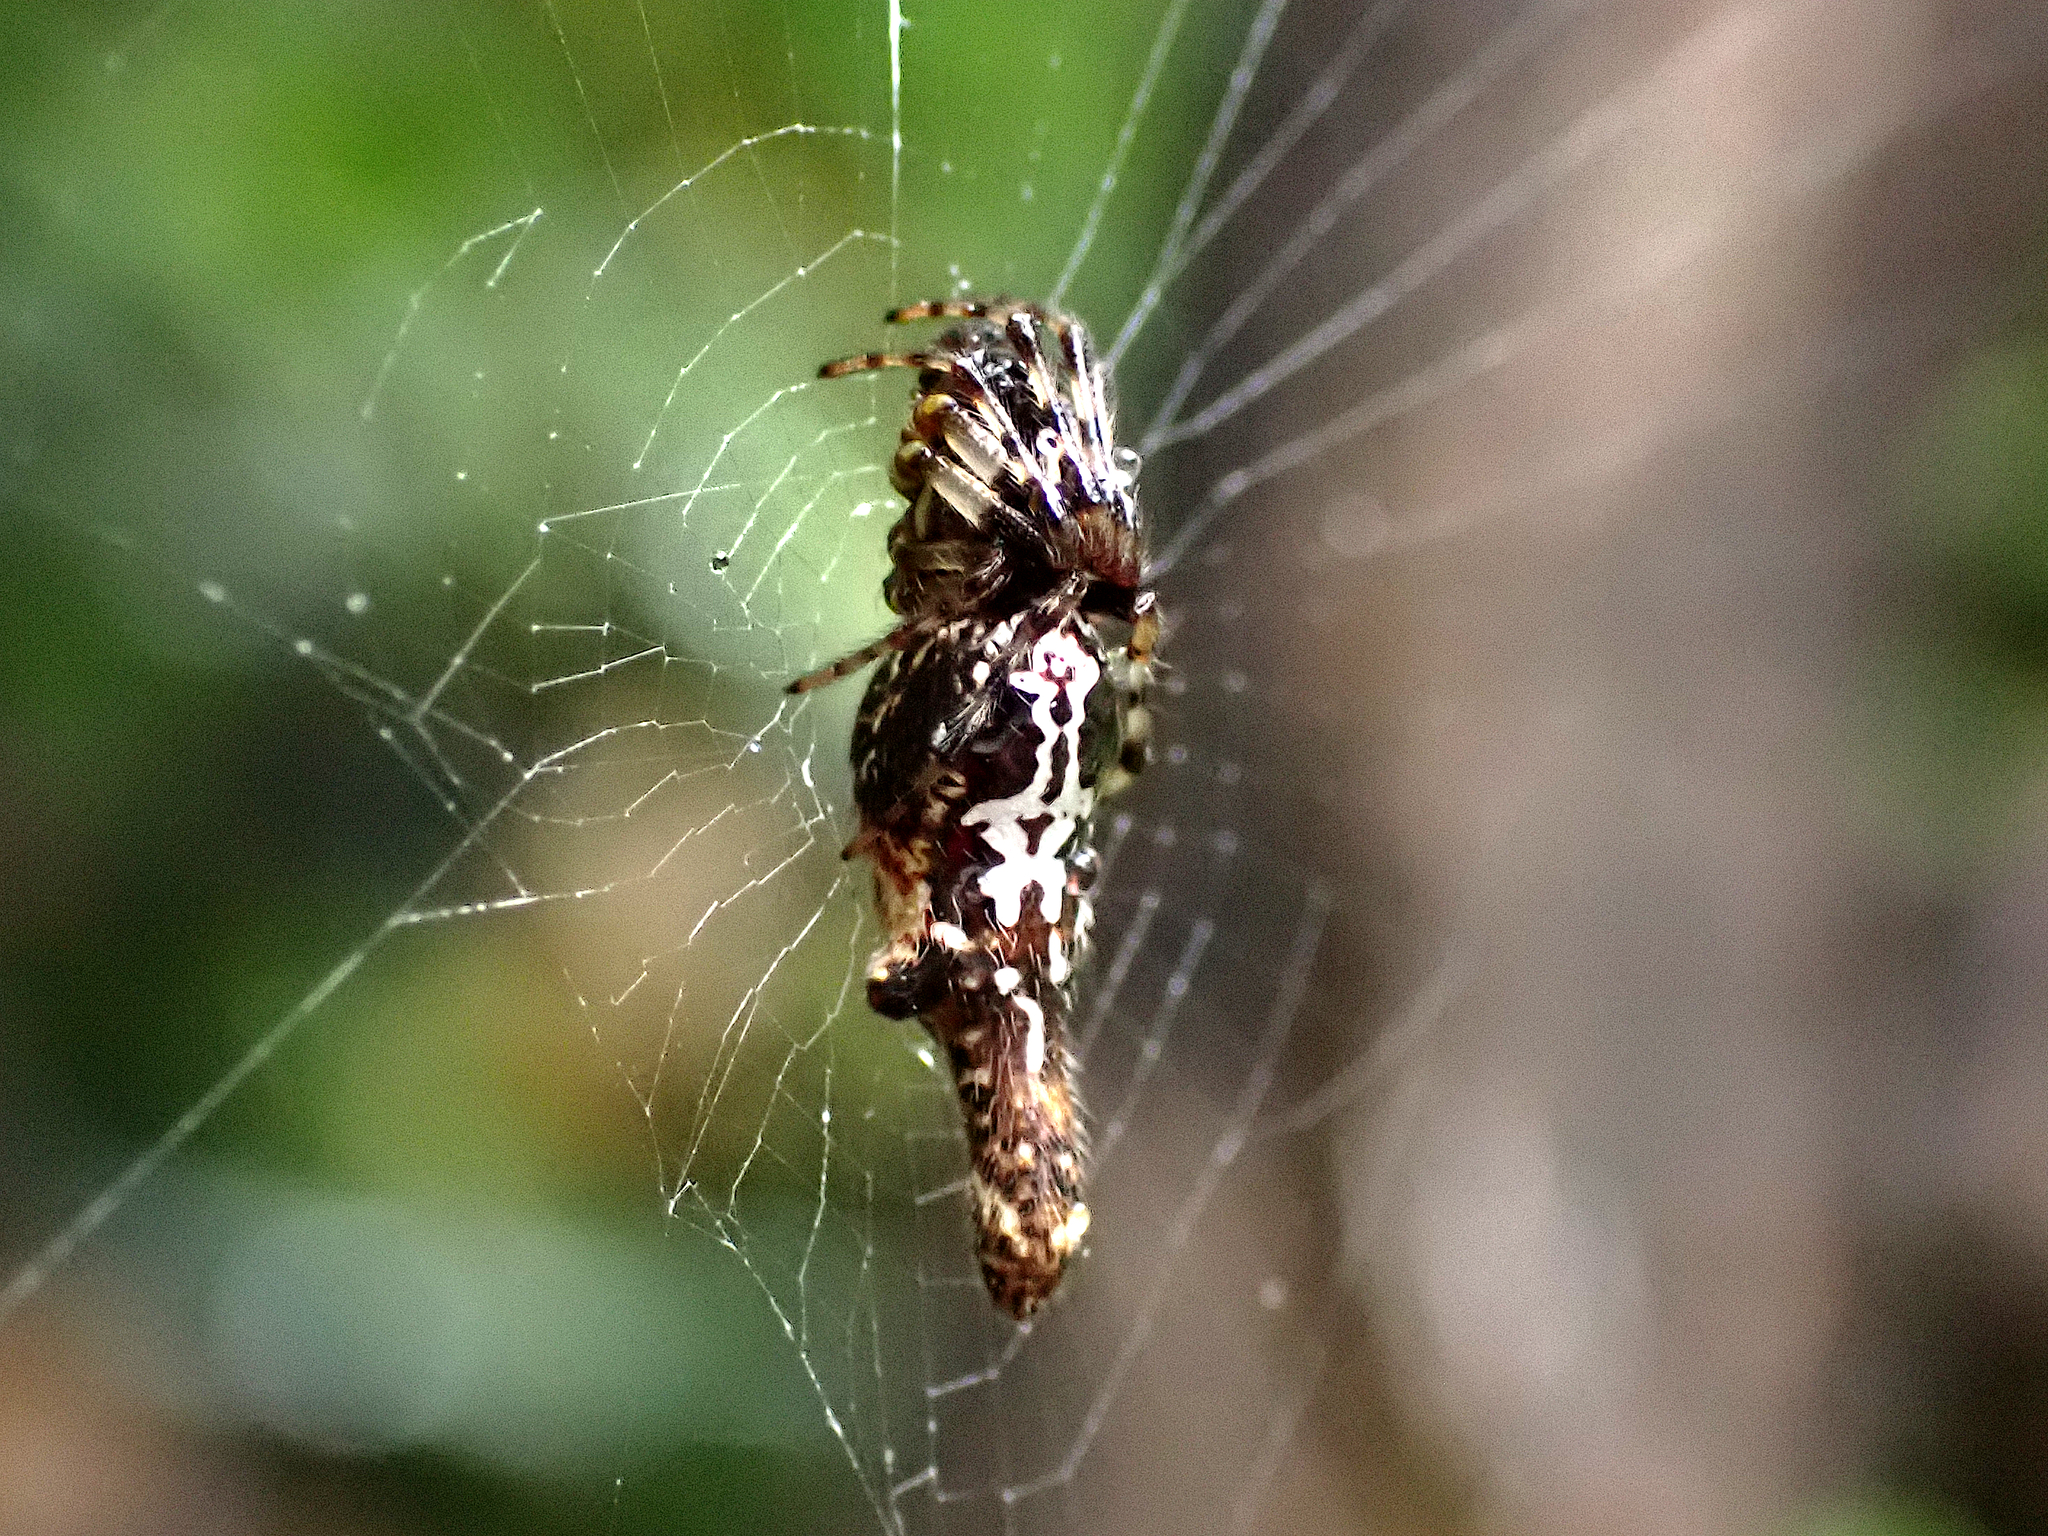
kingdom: Animalia
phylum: Arthropoda
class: Arachnida
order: Araneae
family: Araneidae
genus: Cyclosa
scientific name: Cyclosa trilobata
